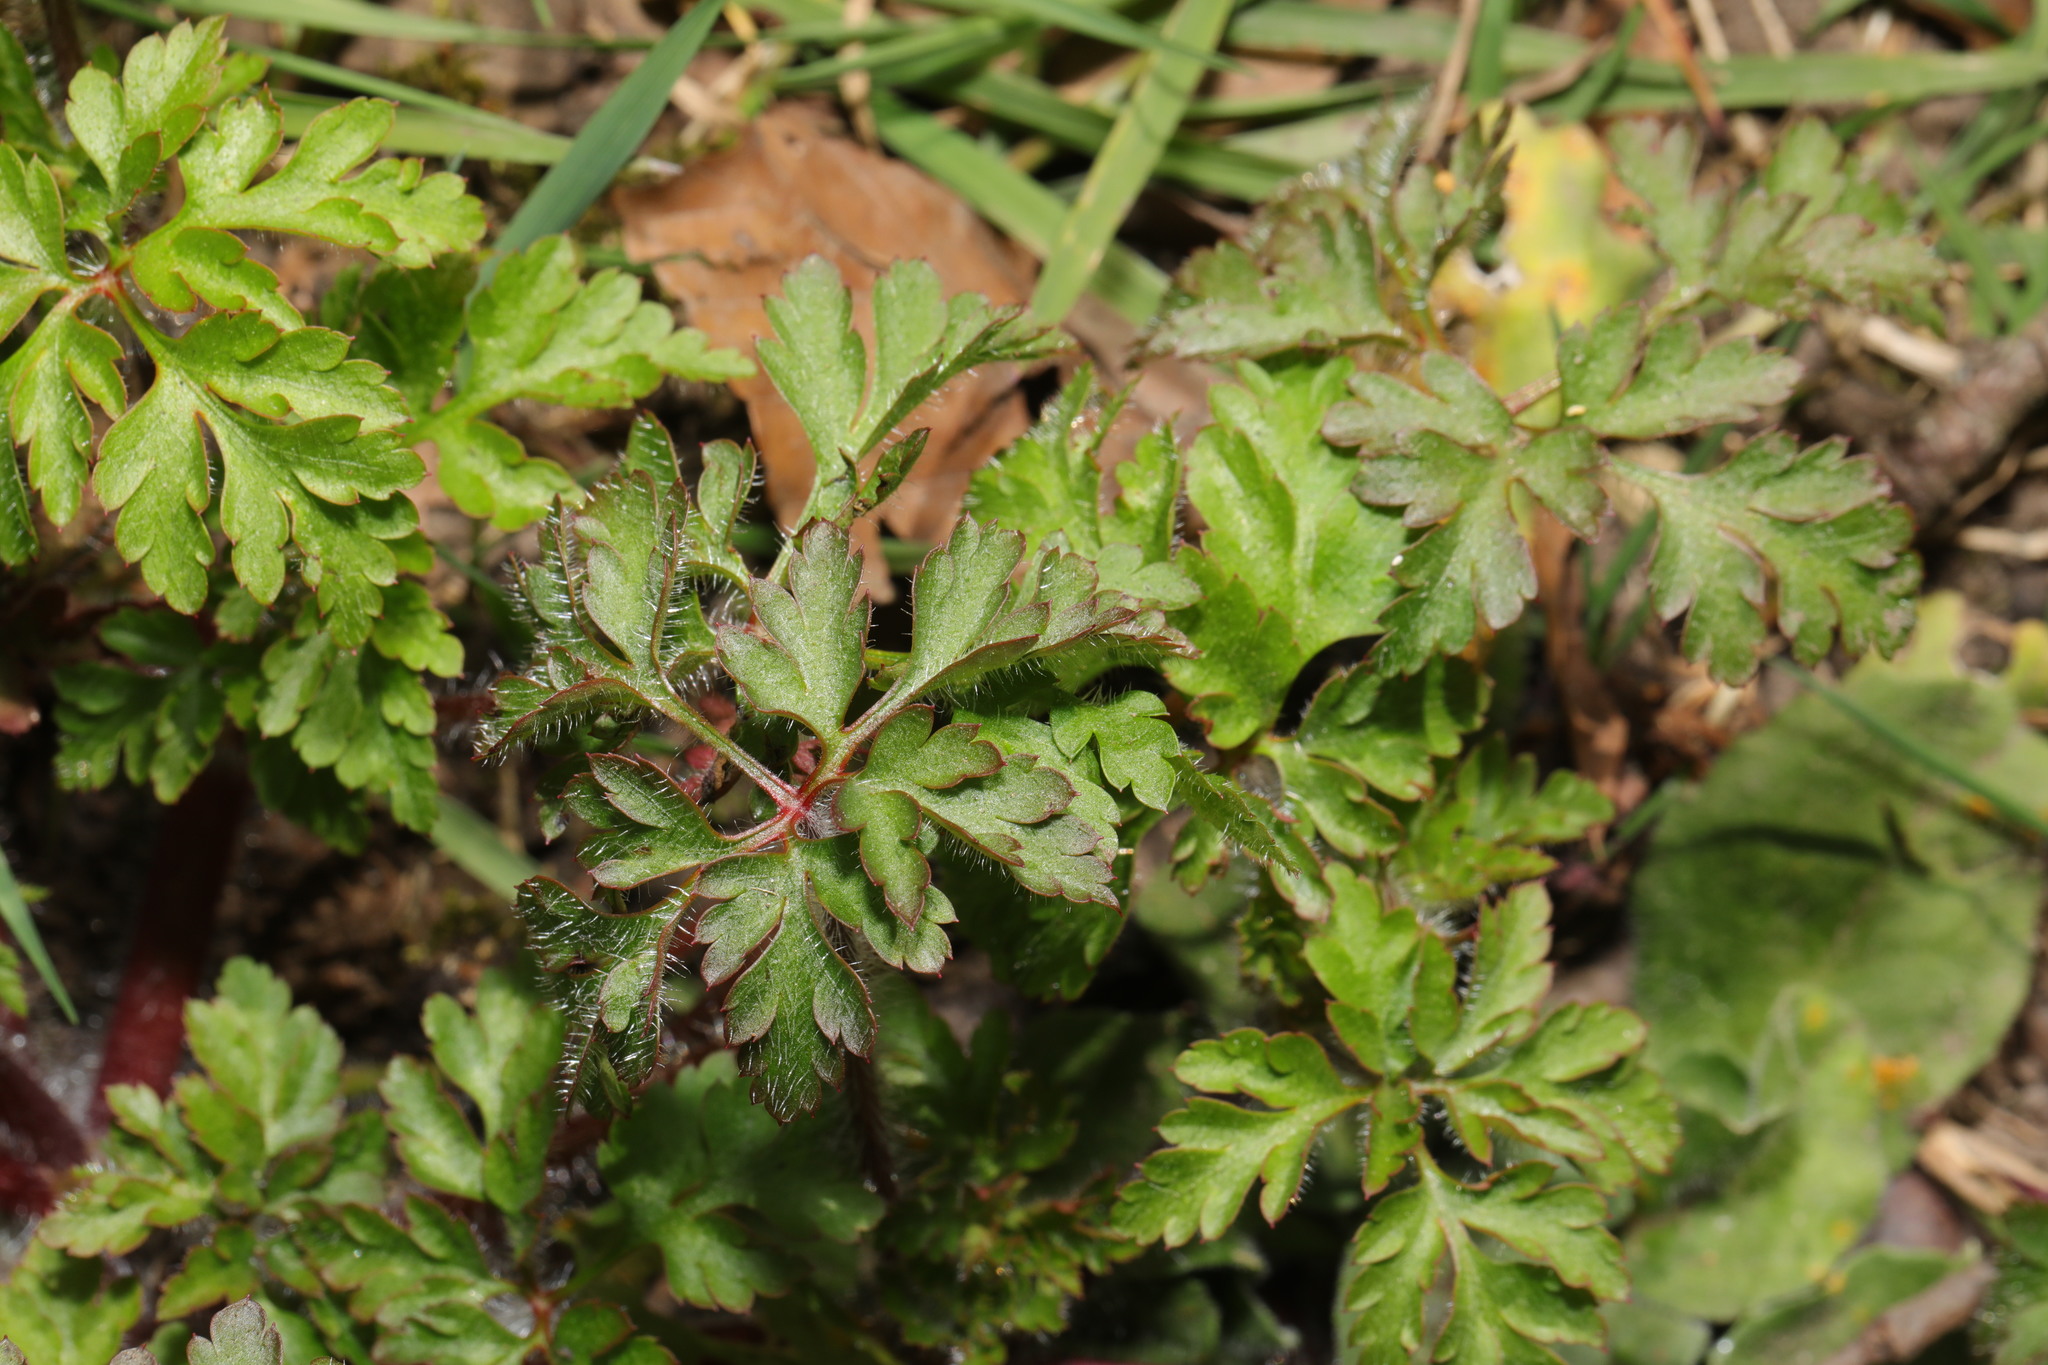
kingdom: Plantae
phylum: Tracheophyta
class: Magnoliopsida
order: Geraniales
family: Geraniaceae
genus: Geranium
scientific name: Geranium robertianum
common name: Herb-robert
